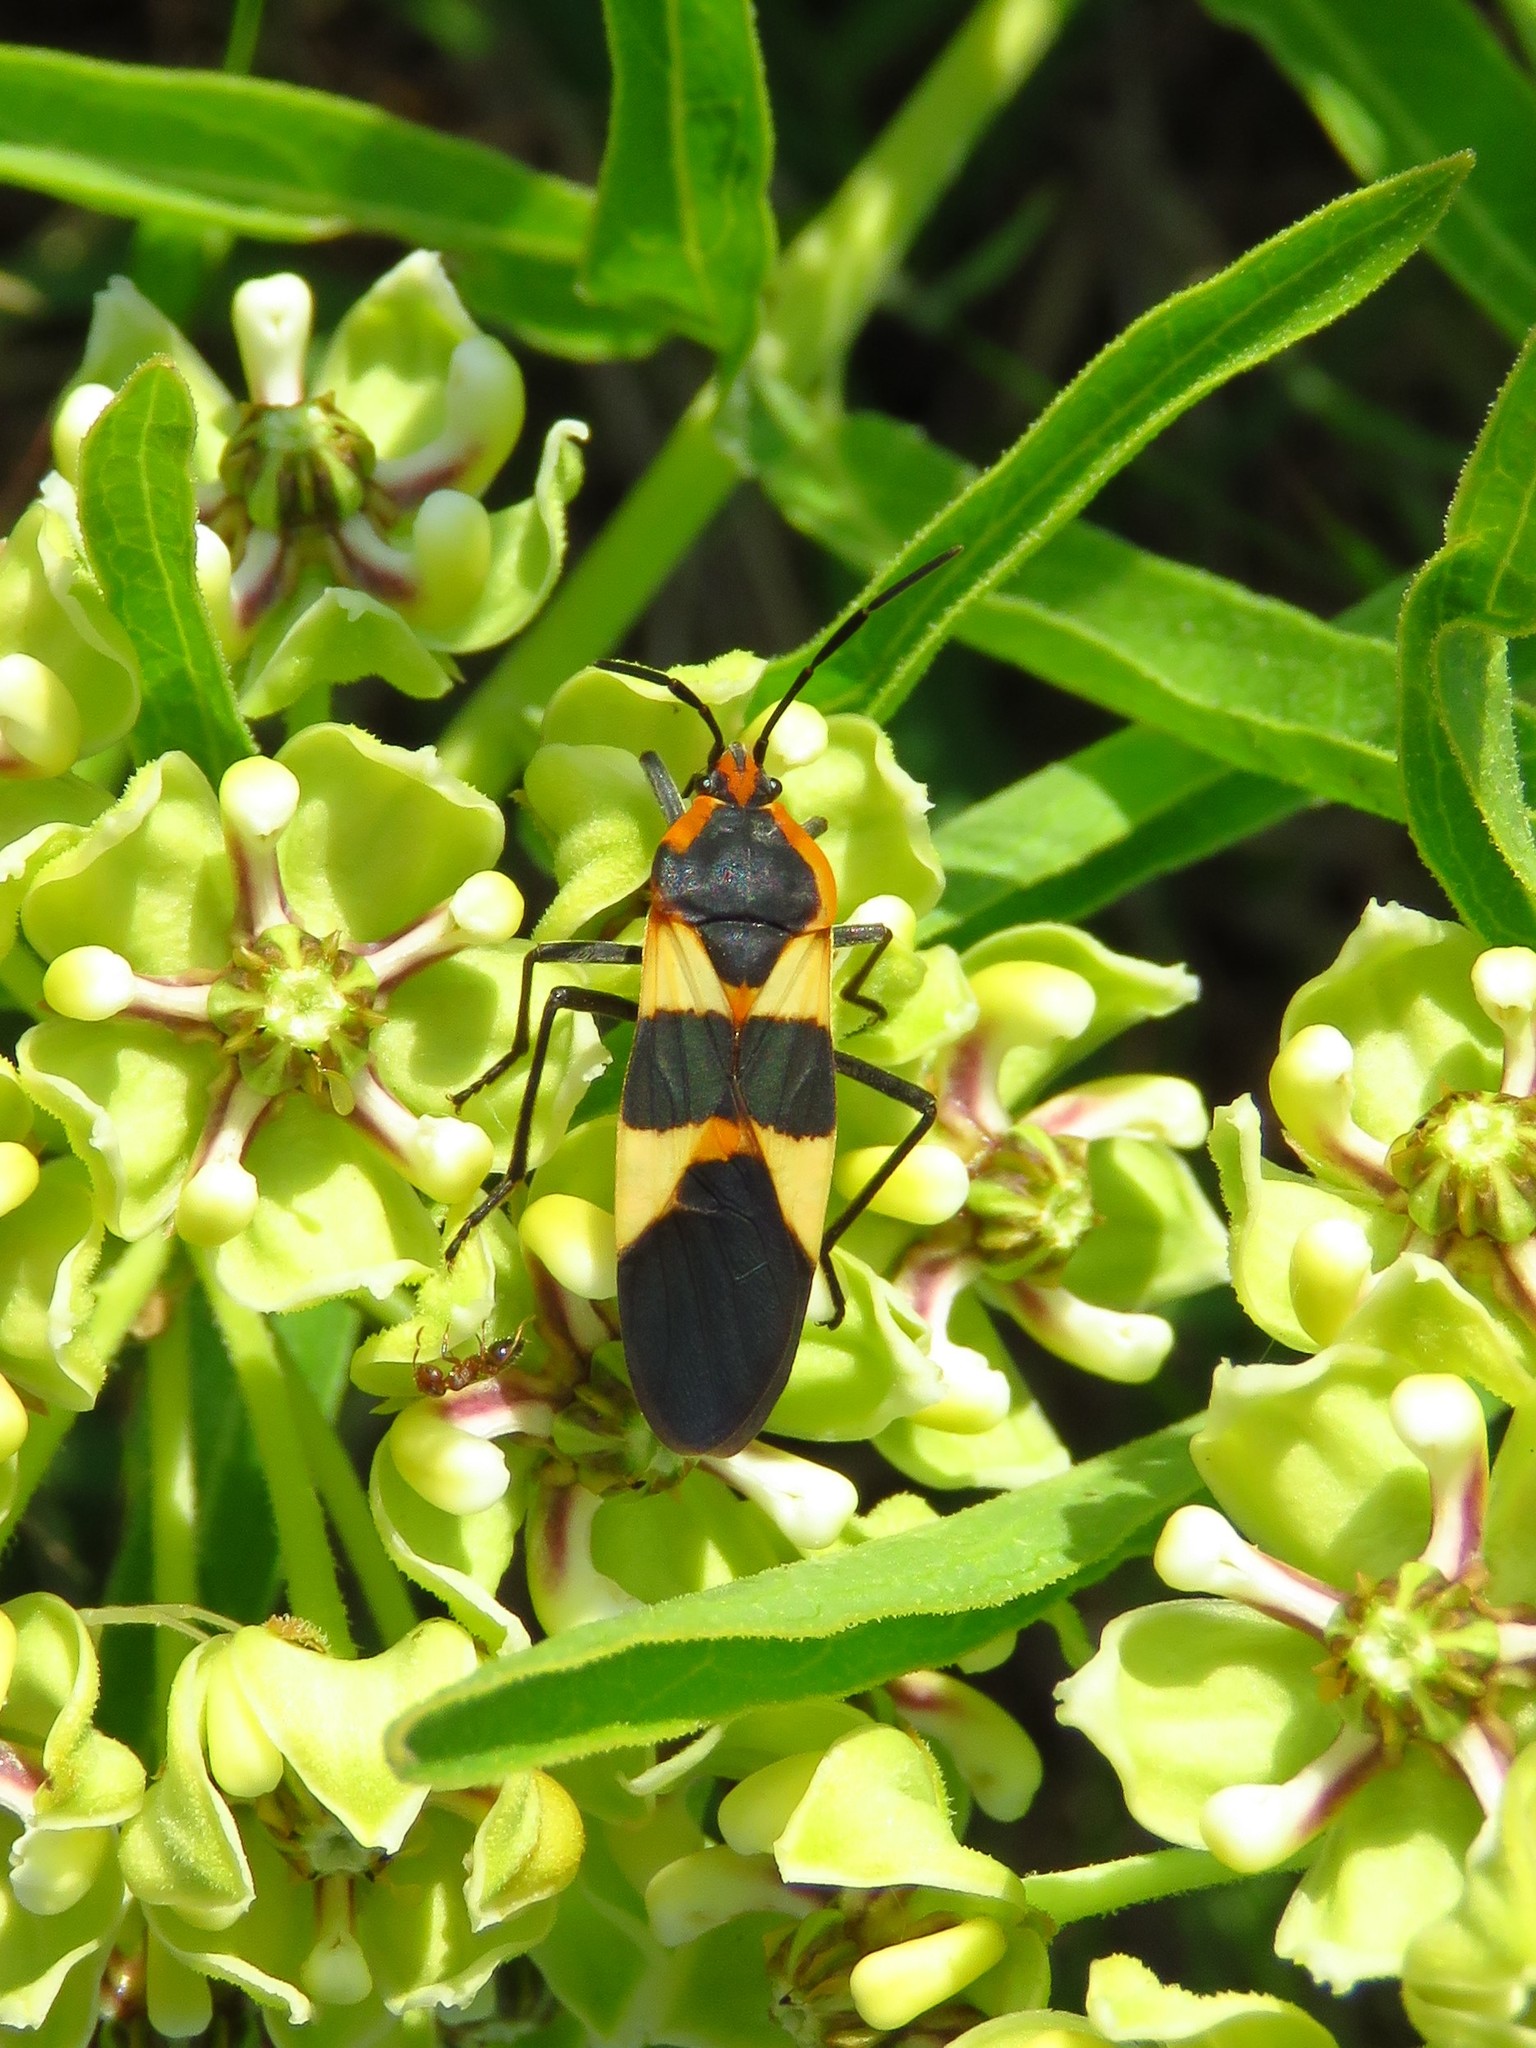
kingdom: Animalia
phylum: Arthropoda
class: Insecta
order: Hemiptera
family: Lygaeidae
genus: Oncopeltus
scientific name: Oncopeltus fasciatus
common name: Large milkweed bug
